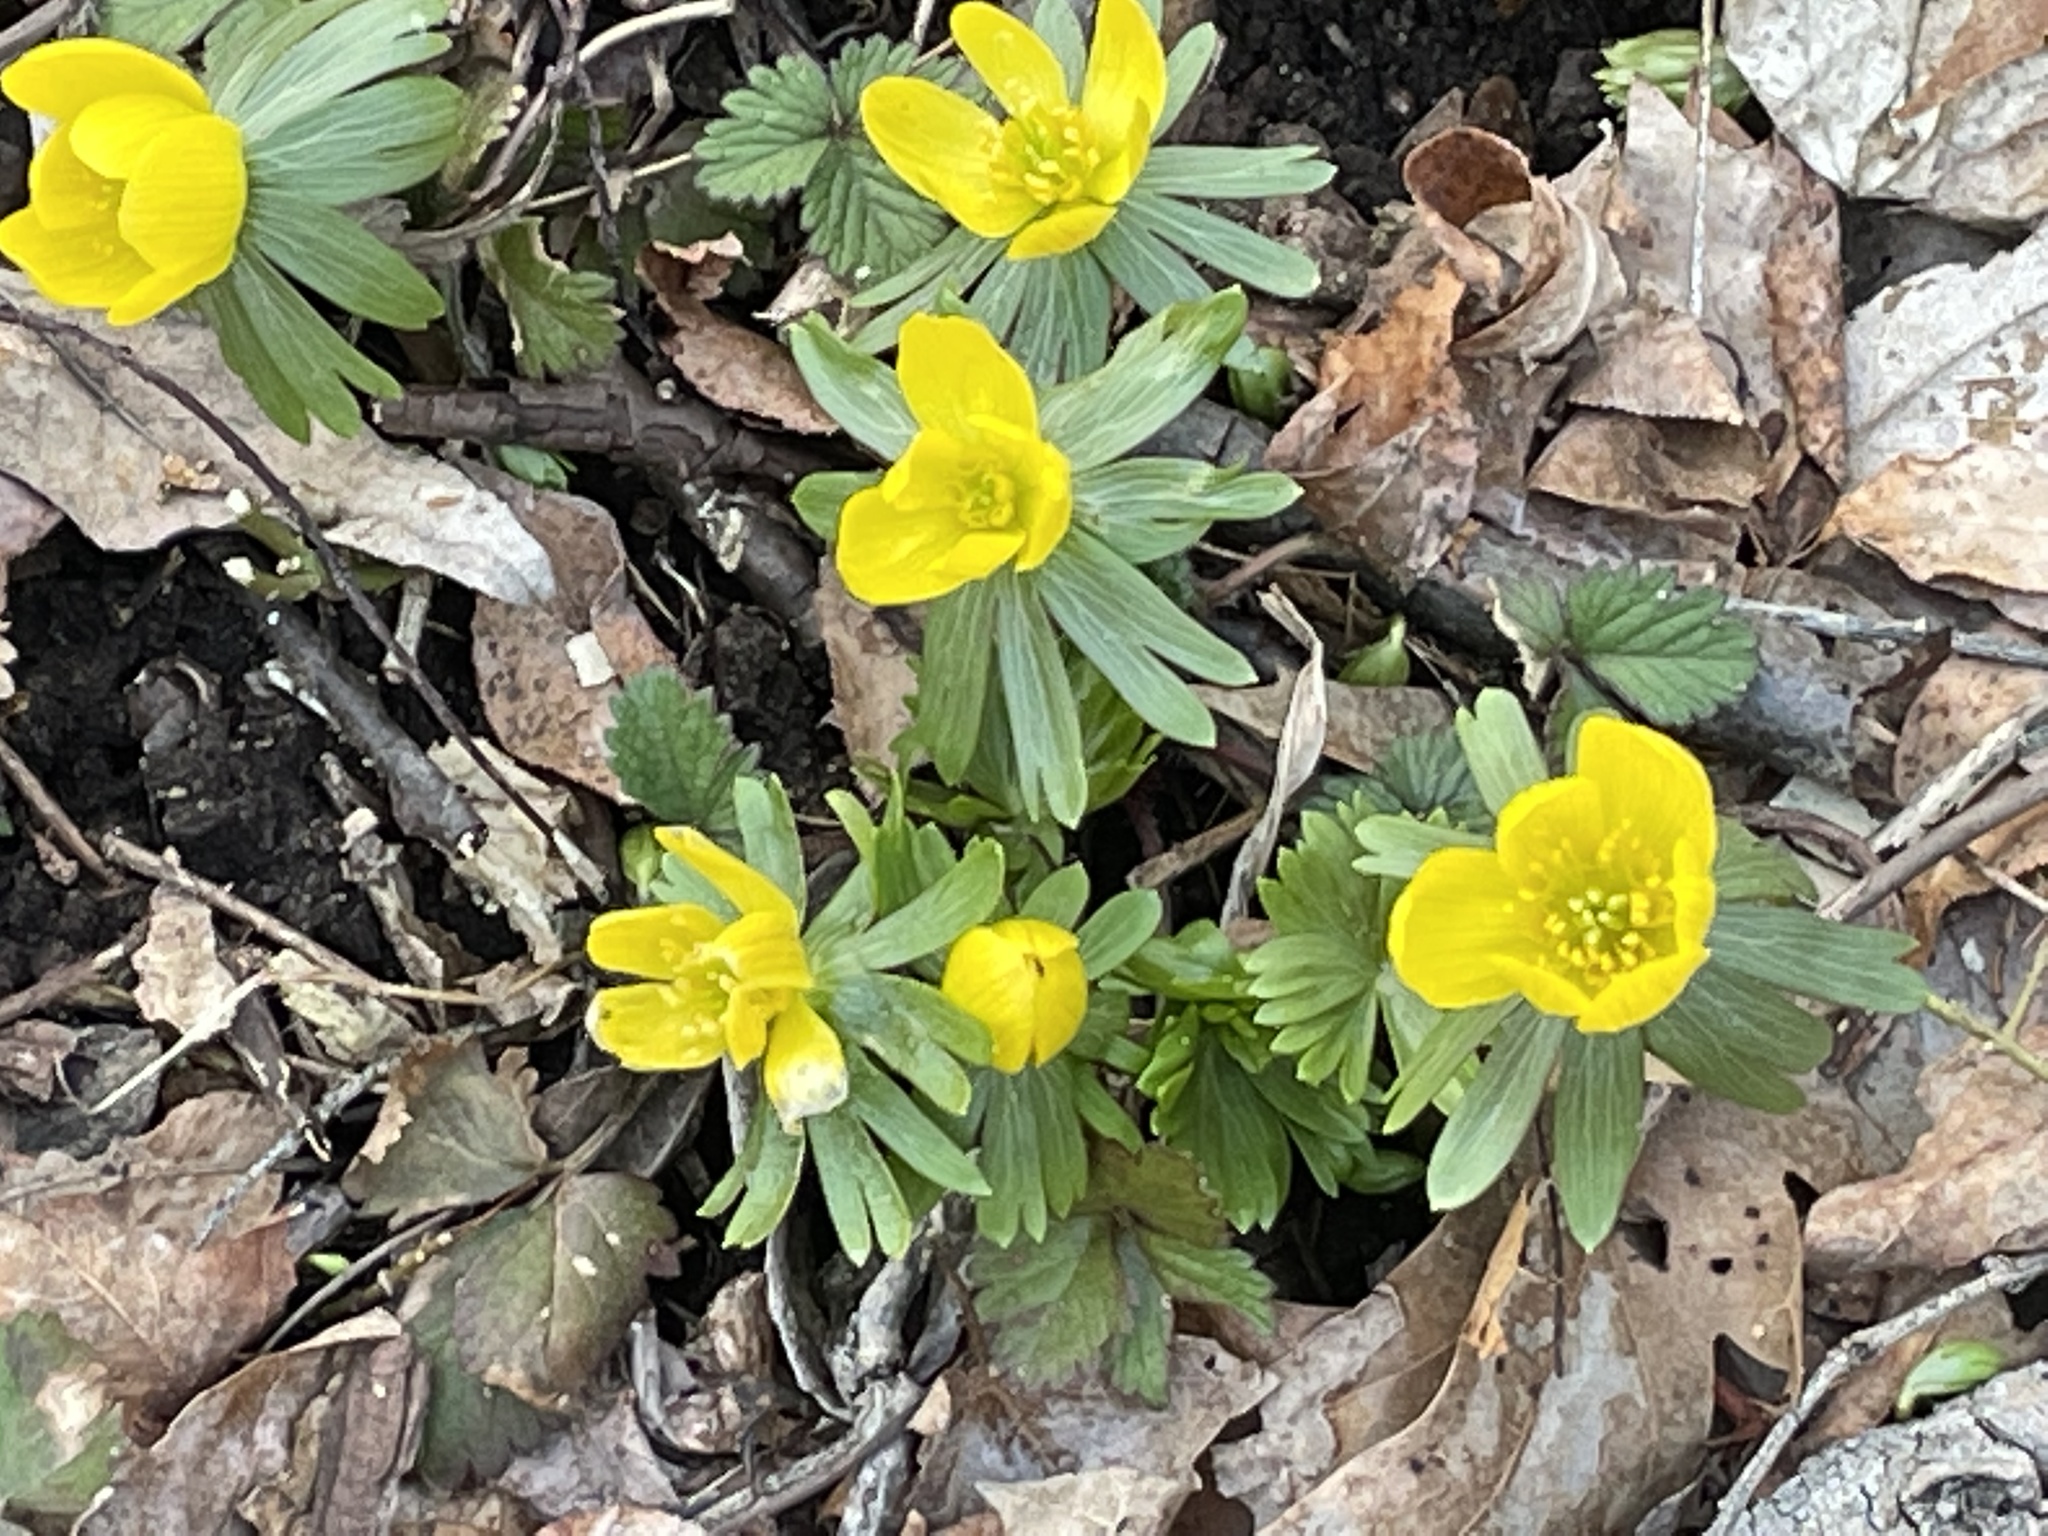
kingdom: Plantae
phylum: Tracheophyta
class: Magnoliopsida
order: Ranunculales
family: Ranunculaceae
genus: Eranthis
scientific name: Eranthis hyemalis
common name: Winter aconite
